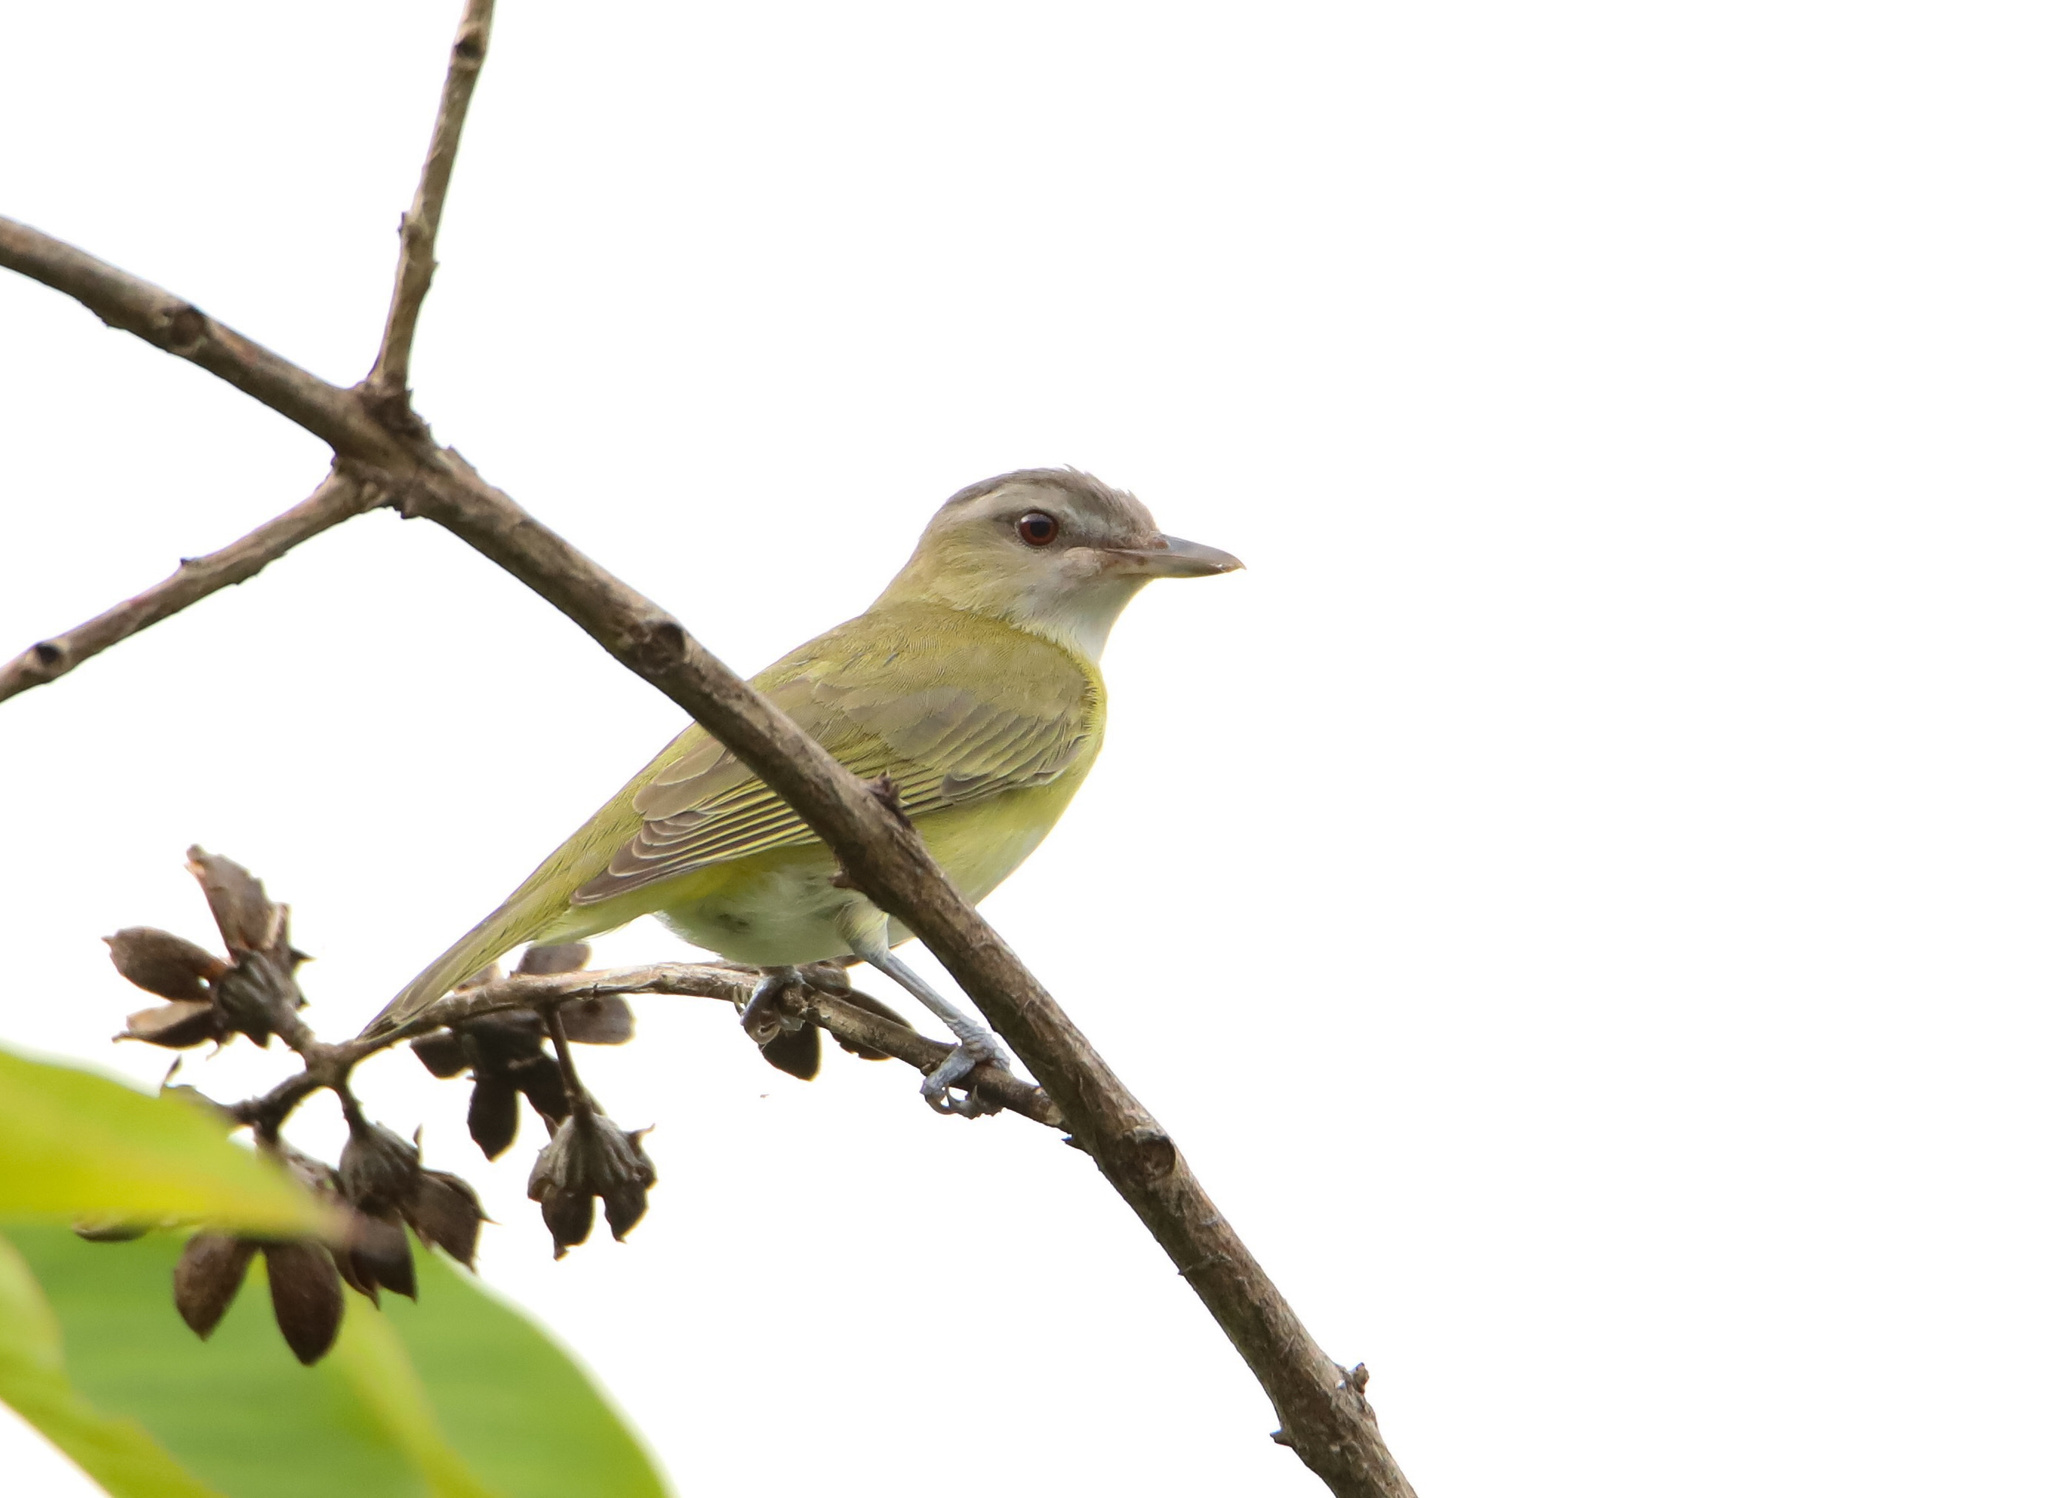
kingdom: Animalia
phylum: Chordata
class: Aves
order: Passeriformes
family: Vireonidae
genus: Vireo
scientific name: Vireo flavoviridis
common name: Yellow-green vireo
